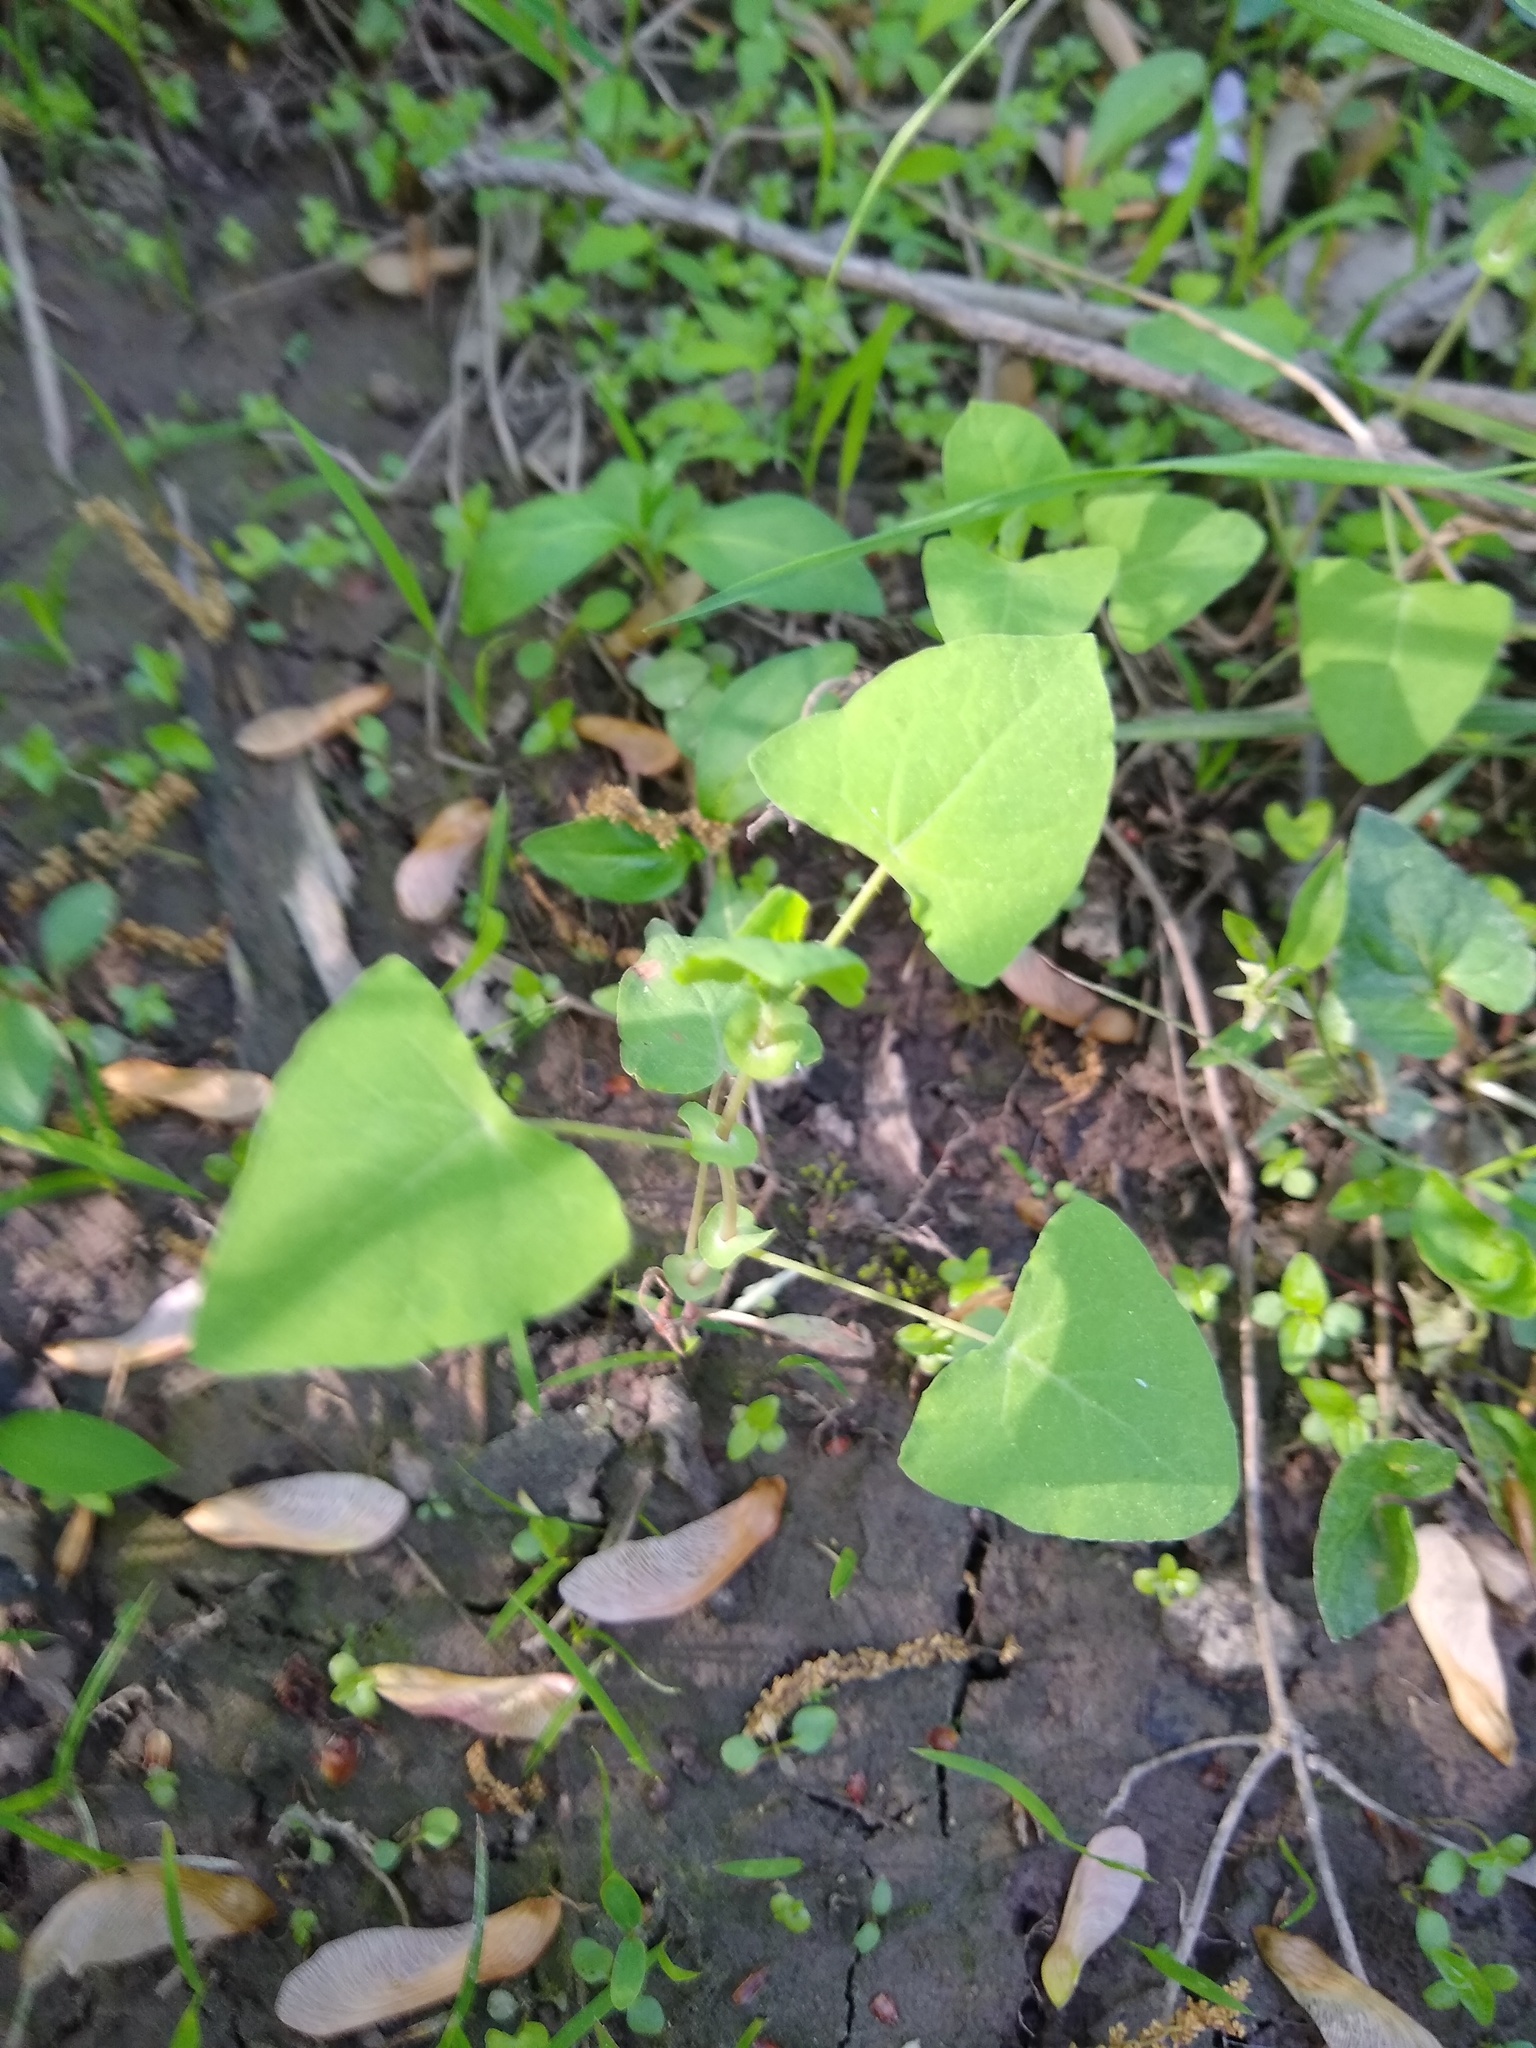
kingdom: Plantae
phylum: Tracheophyta
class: Magnoliopsida
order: Caryophyllales
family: Polygonaceae
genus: Persicaria
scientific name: Persicaria perfoliata
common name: Asiatic tearthumb
